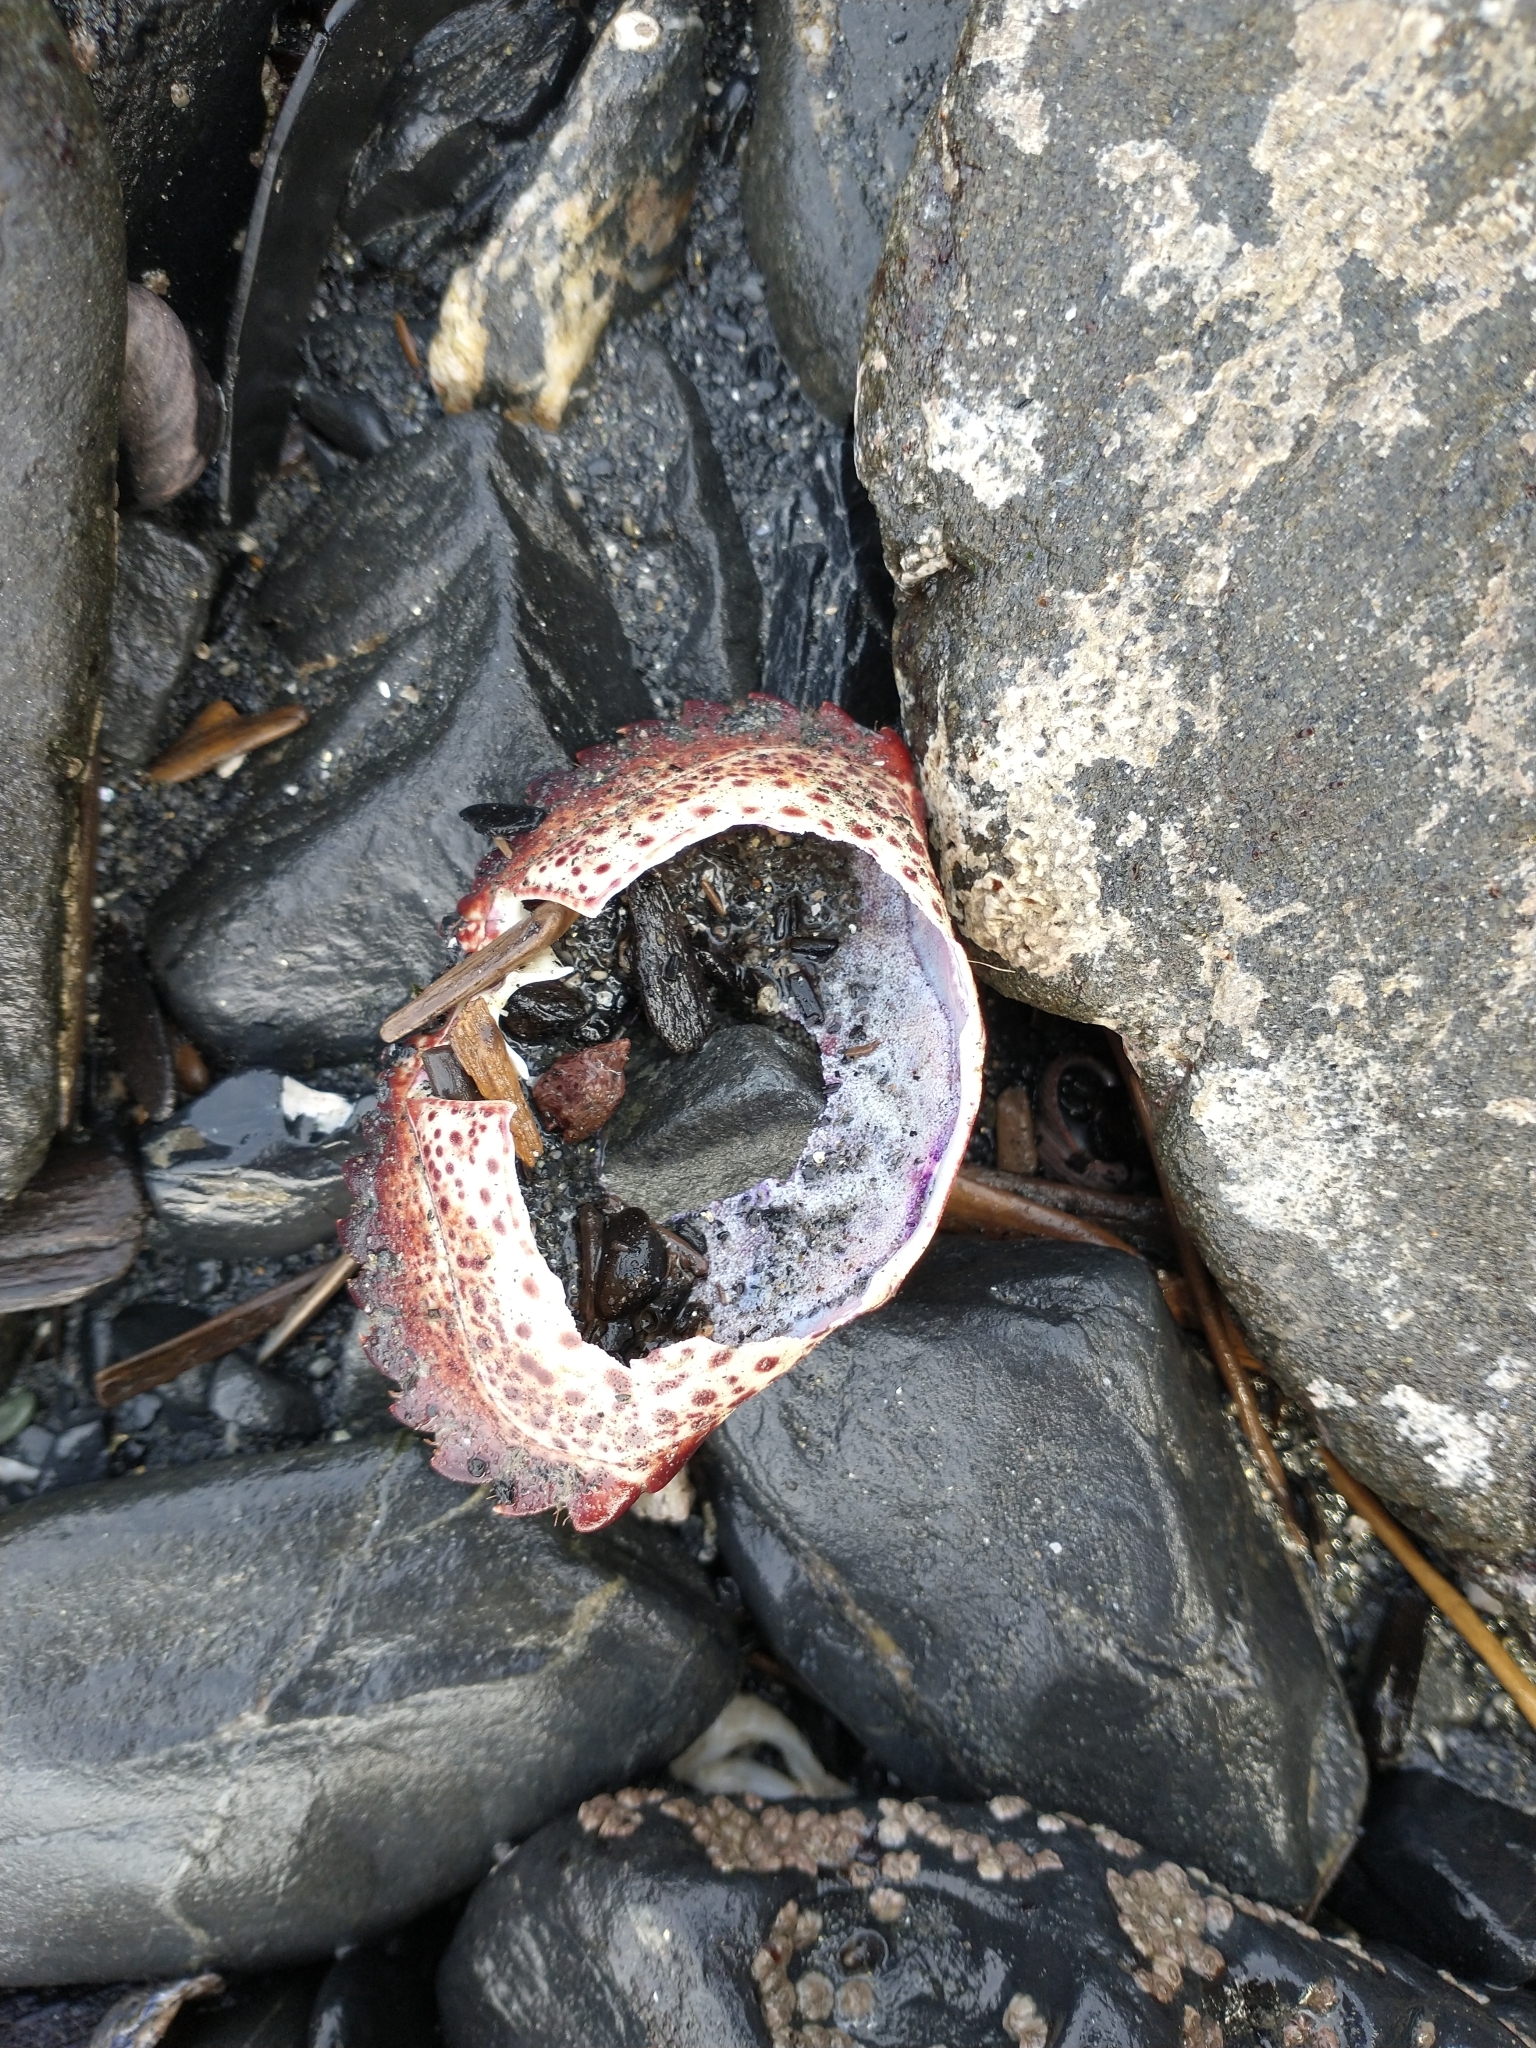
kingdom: Animalia
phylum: Arthropoda
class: Malacostraca
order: Decapoda
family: Cancridae
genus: Romaleon
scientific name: Romaleon antennarium
